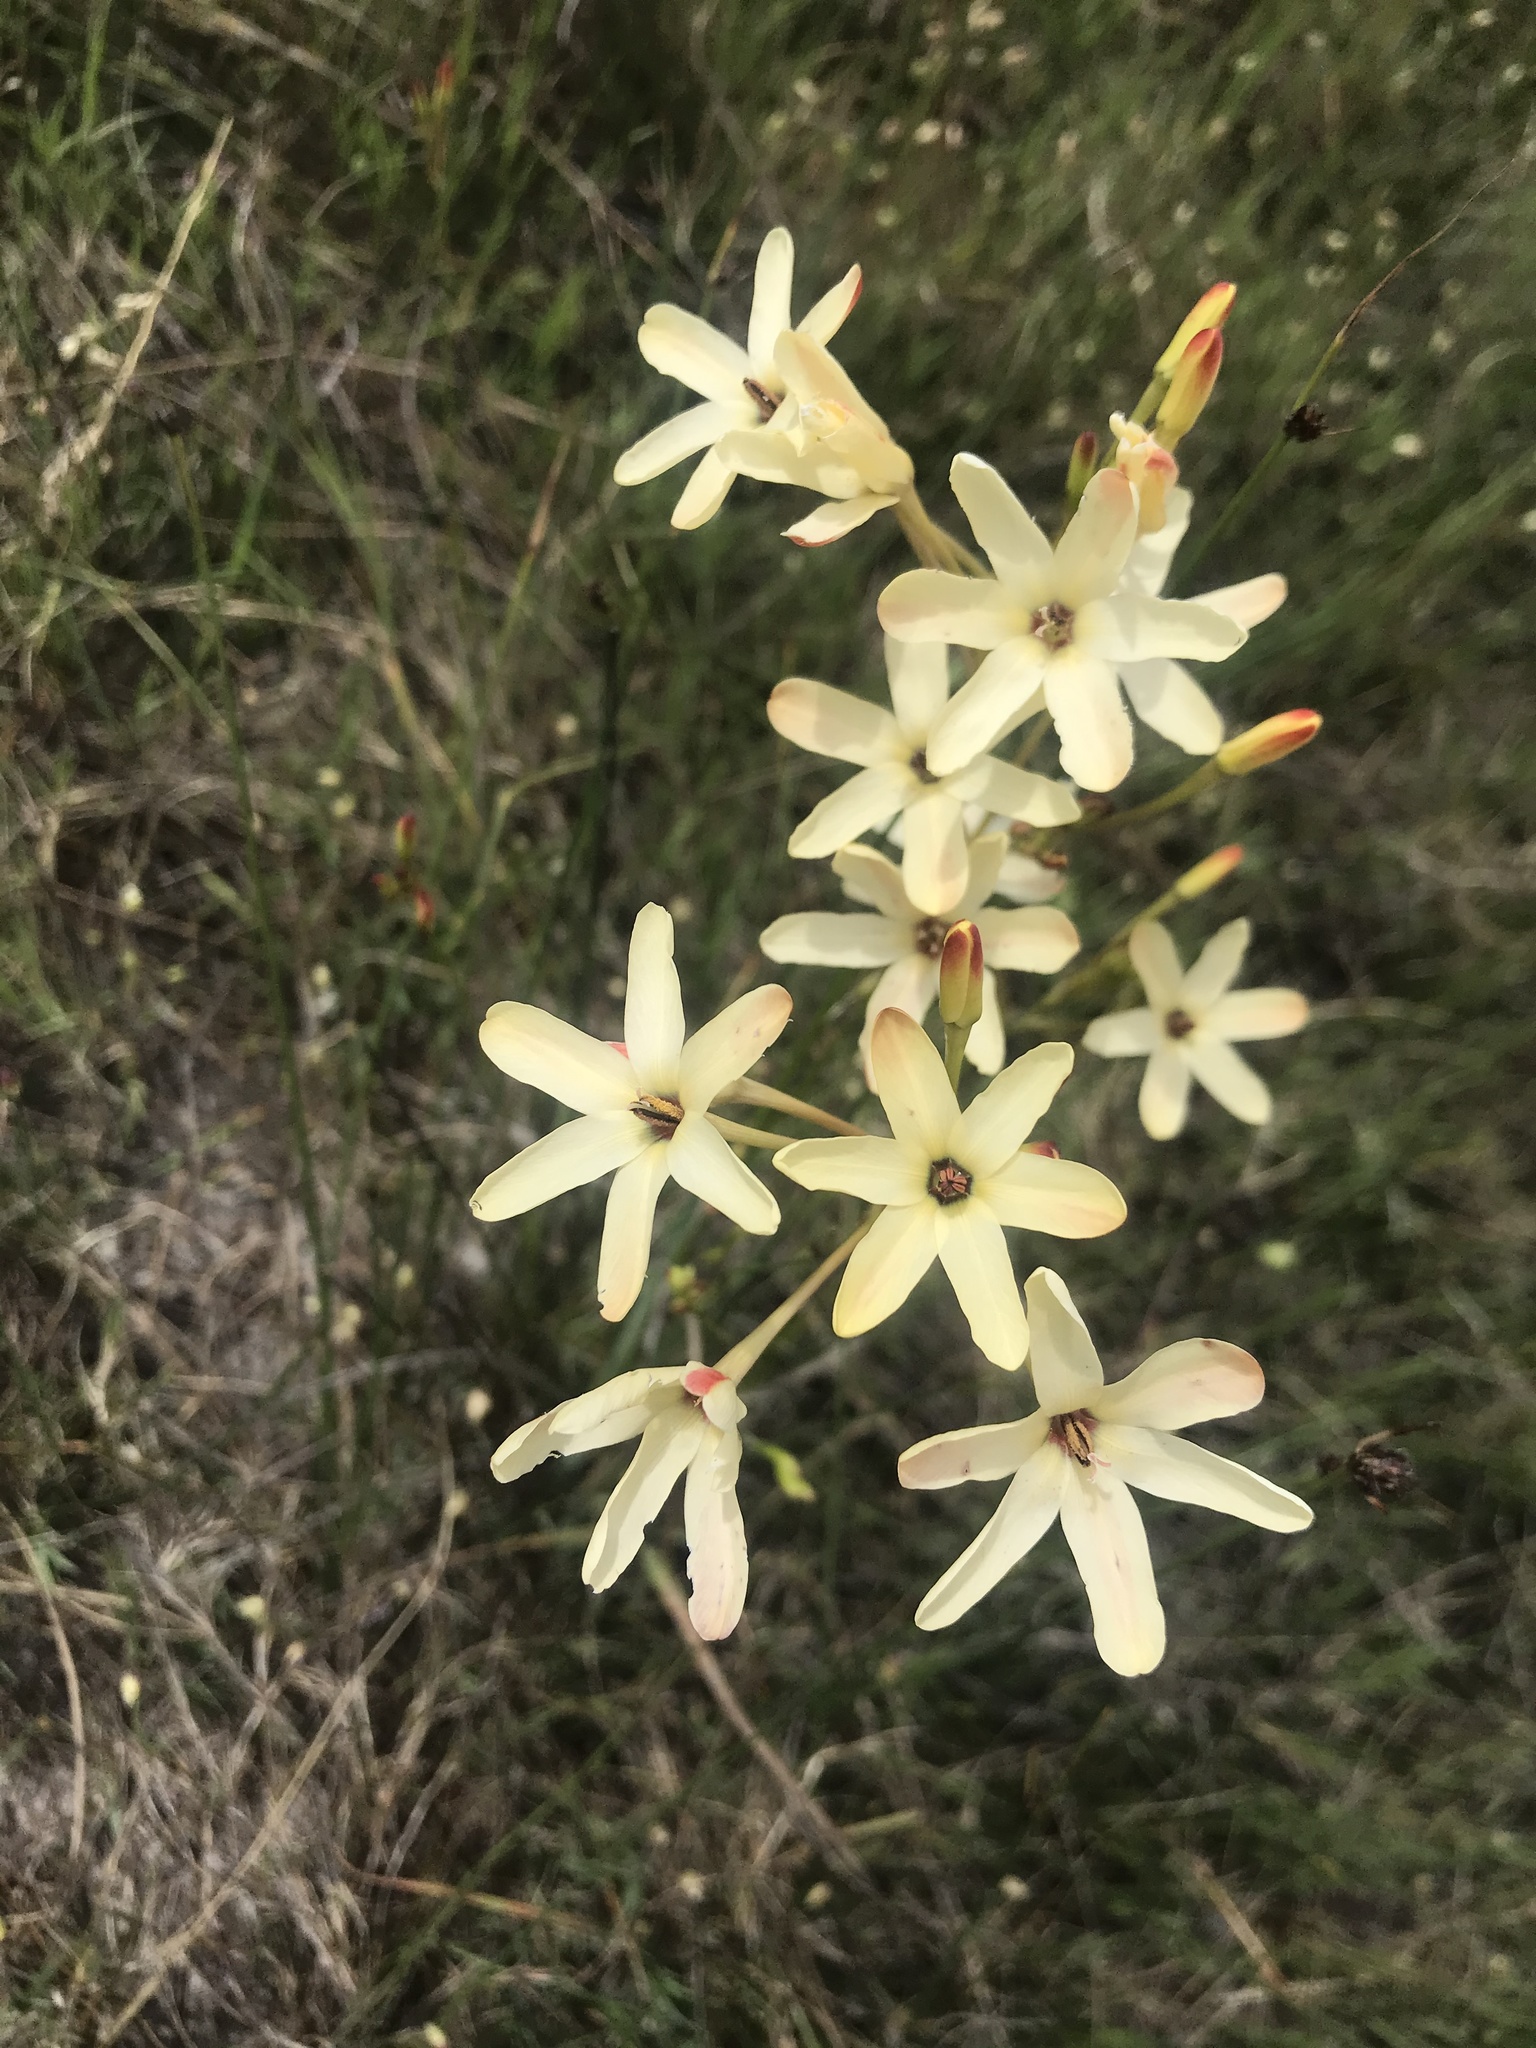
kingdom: Plantae
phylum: Tracheophyta
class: Liliopsida
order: Asparagales
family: Iridaceae
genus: Ixia
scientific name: Ixia paniculata
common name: Tubular corn-lily
